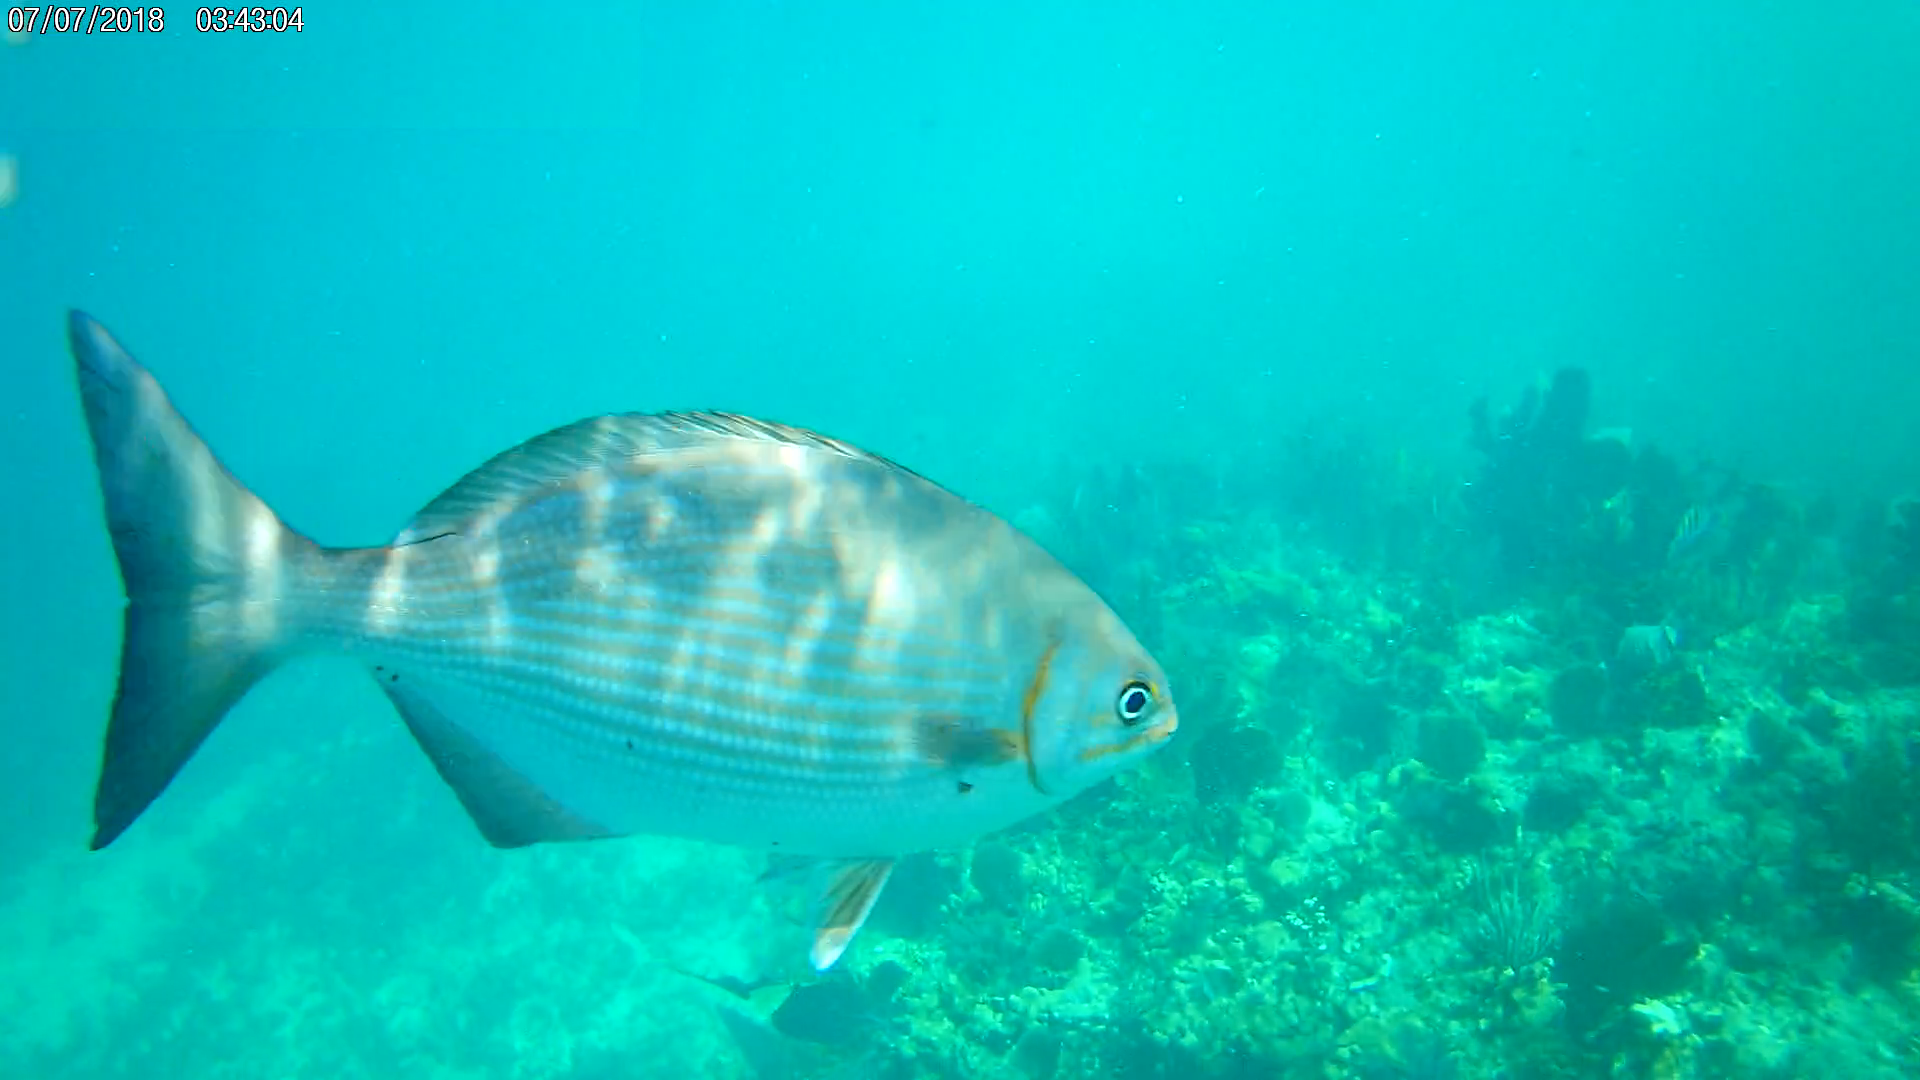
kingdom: Animalia
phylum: Chordata
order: Perciformes
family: Kyphosidae
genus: Kyphosus
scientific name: Kyphosus vaigiensis
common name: Brassy chub
